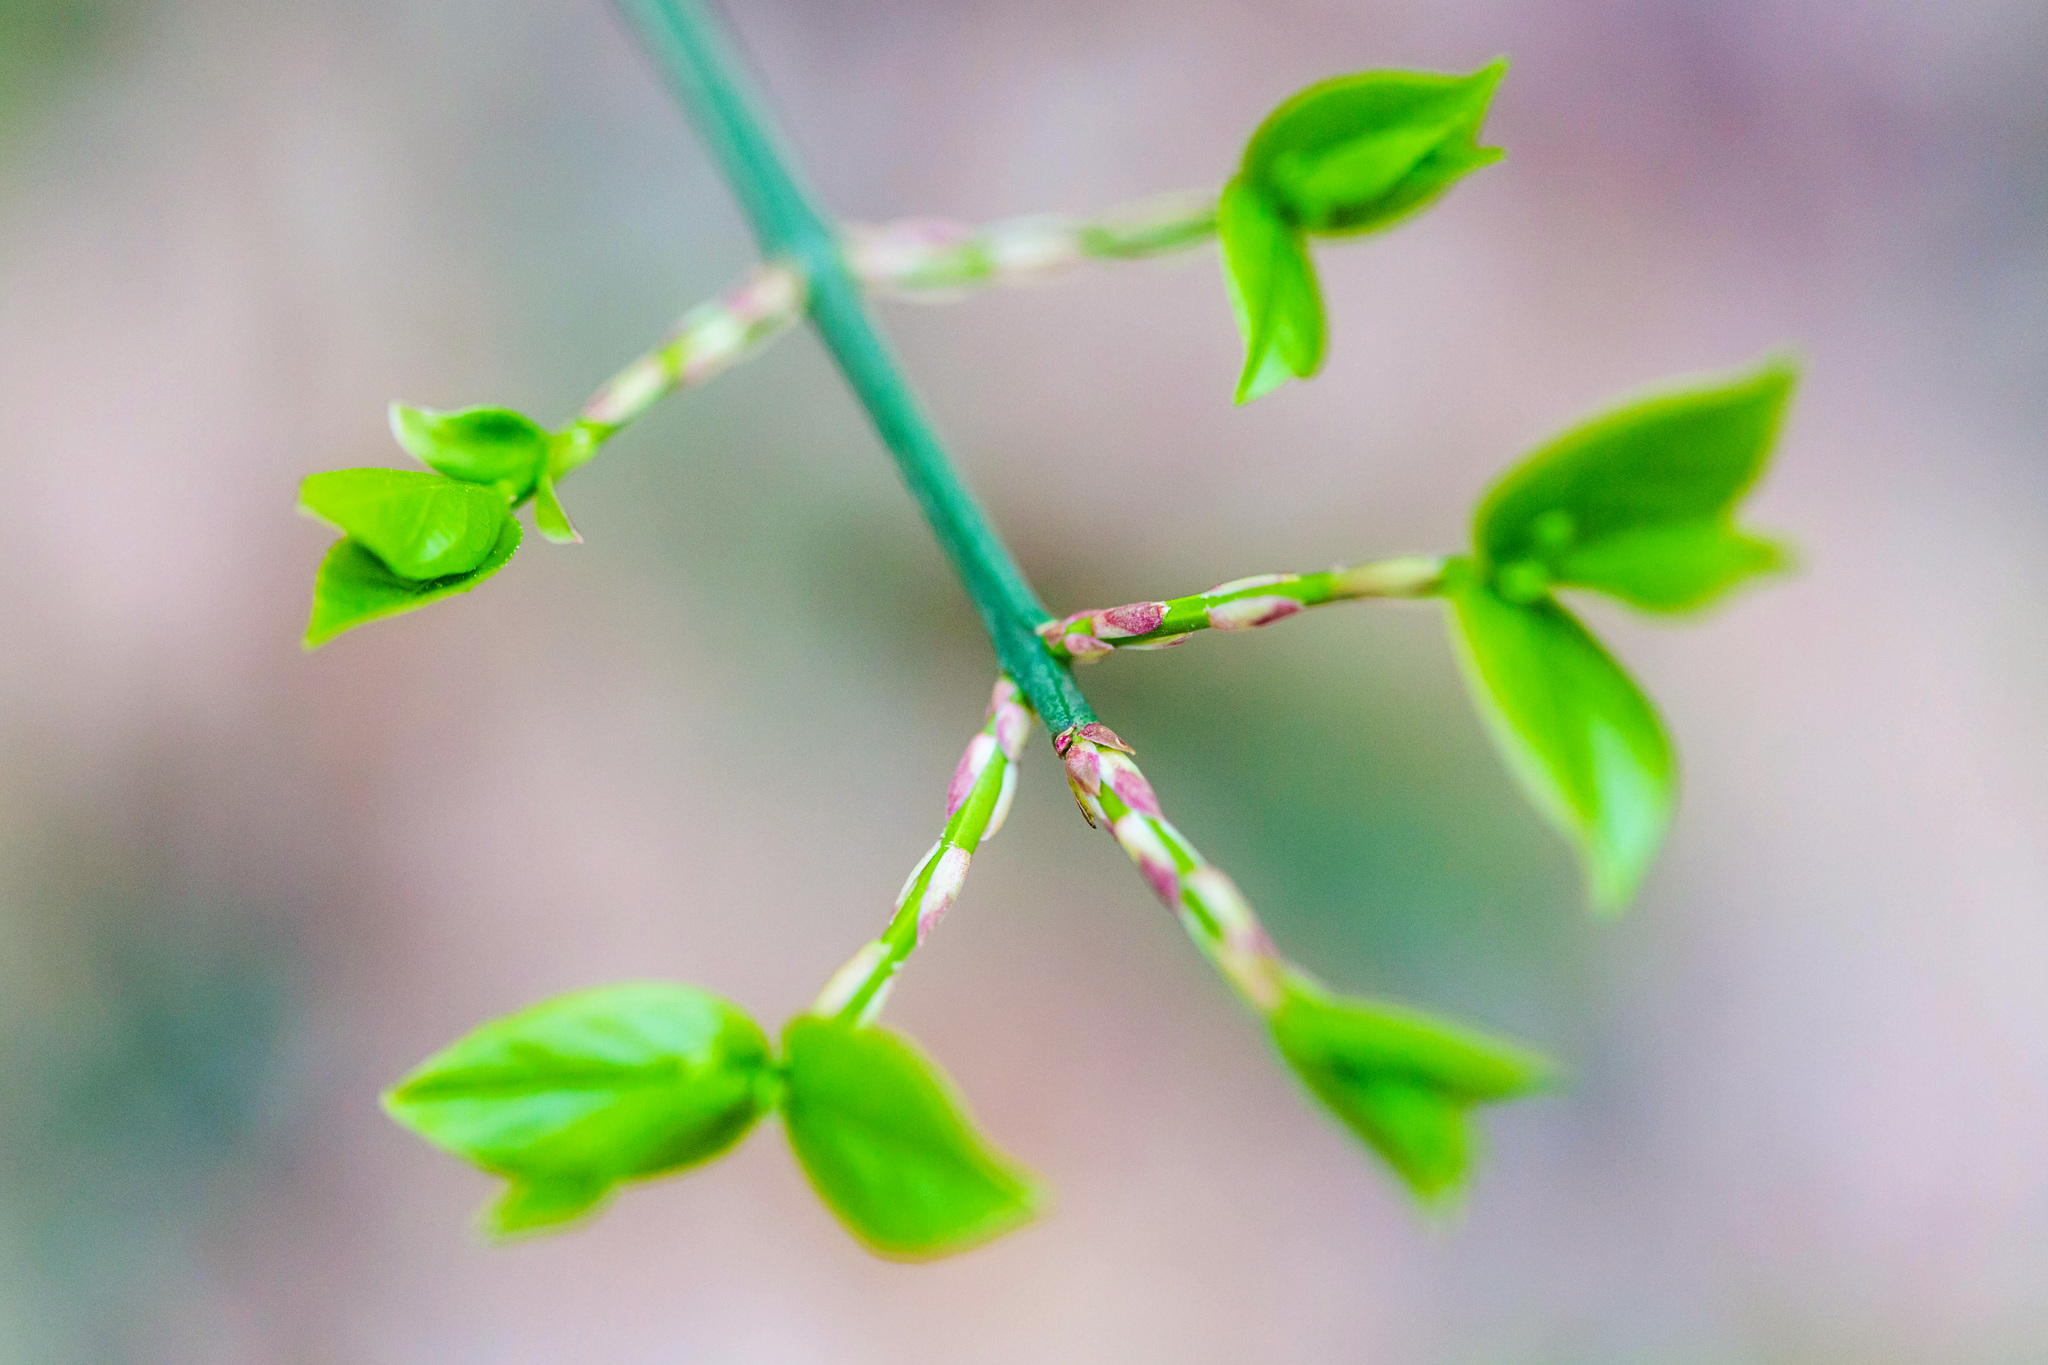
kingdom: Plantae
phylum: Tracheophyta
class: Magnoliopsida
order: Celastrales
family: Celastraceae
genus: Euonymus
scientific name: Euonymus americanus
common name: Bursting-heart
